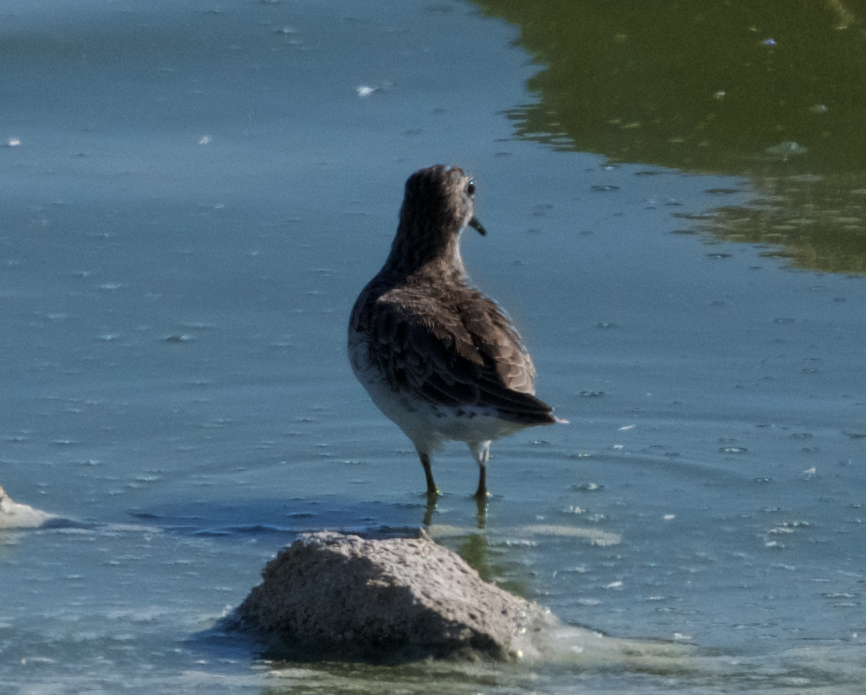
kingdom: Animalia
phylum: Chordata
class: Aves
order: Charadriiformes
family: Scolopacidae
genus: Calidris
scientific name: Calidris minutilla
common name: Least sandpiper
